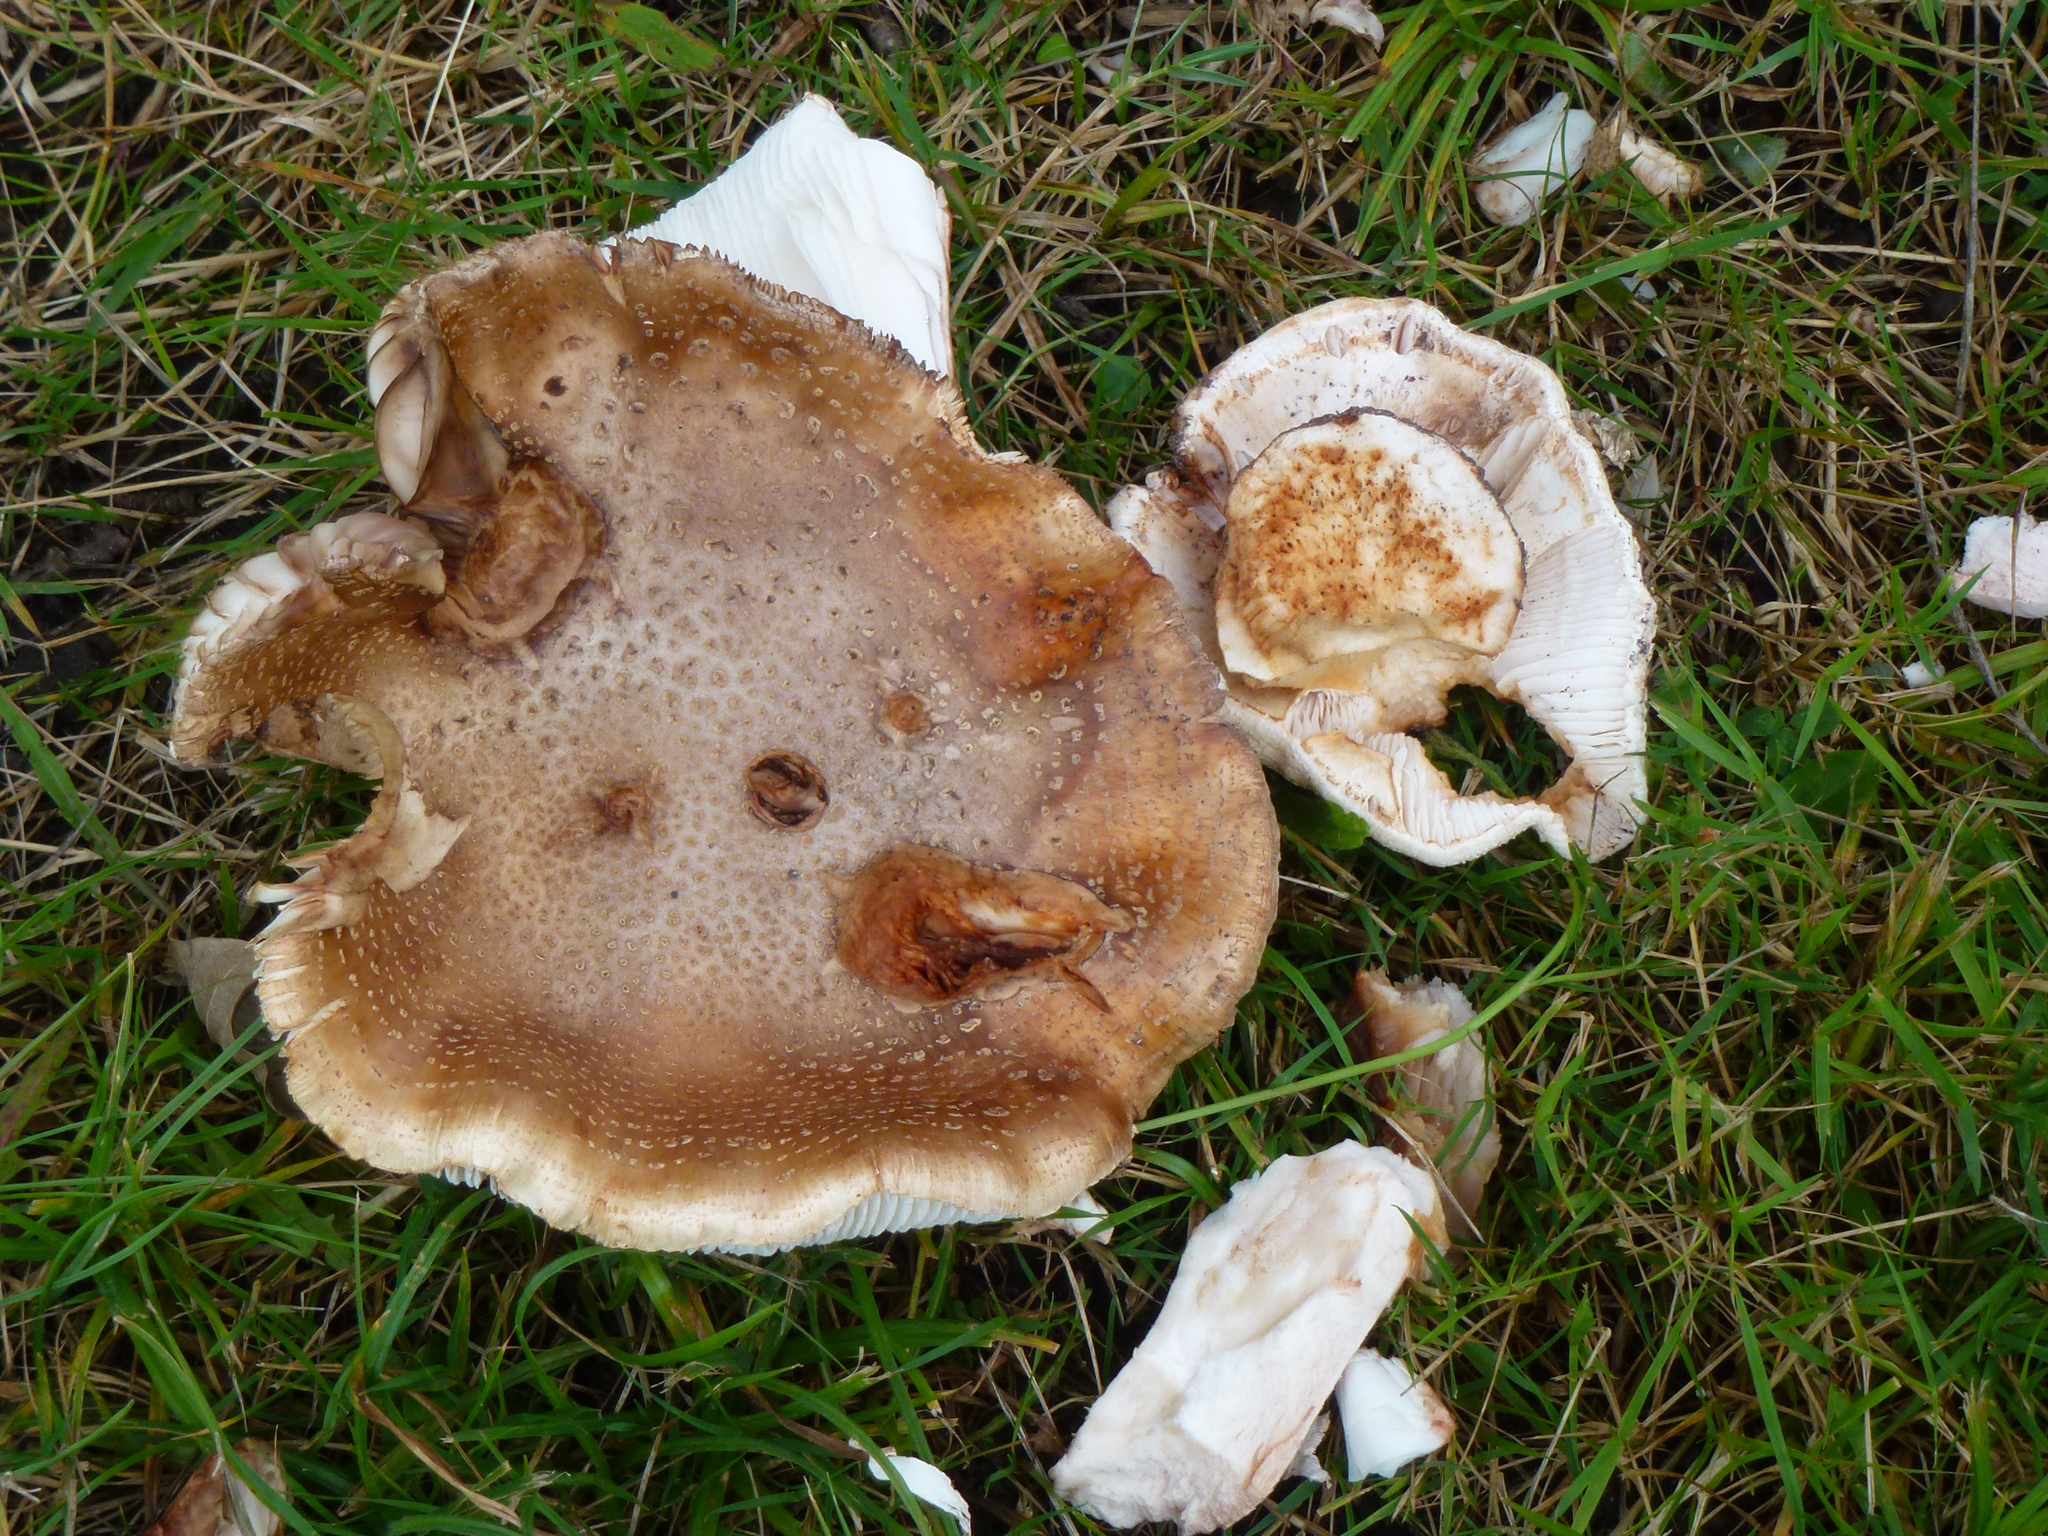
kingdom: Fungi
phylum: Basidiomycota
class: Agaricomycetes
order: Agaricales
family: Amanitaceae
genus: Amanita
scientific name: Amanita rubescens
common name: Blusher
